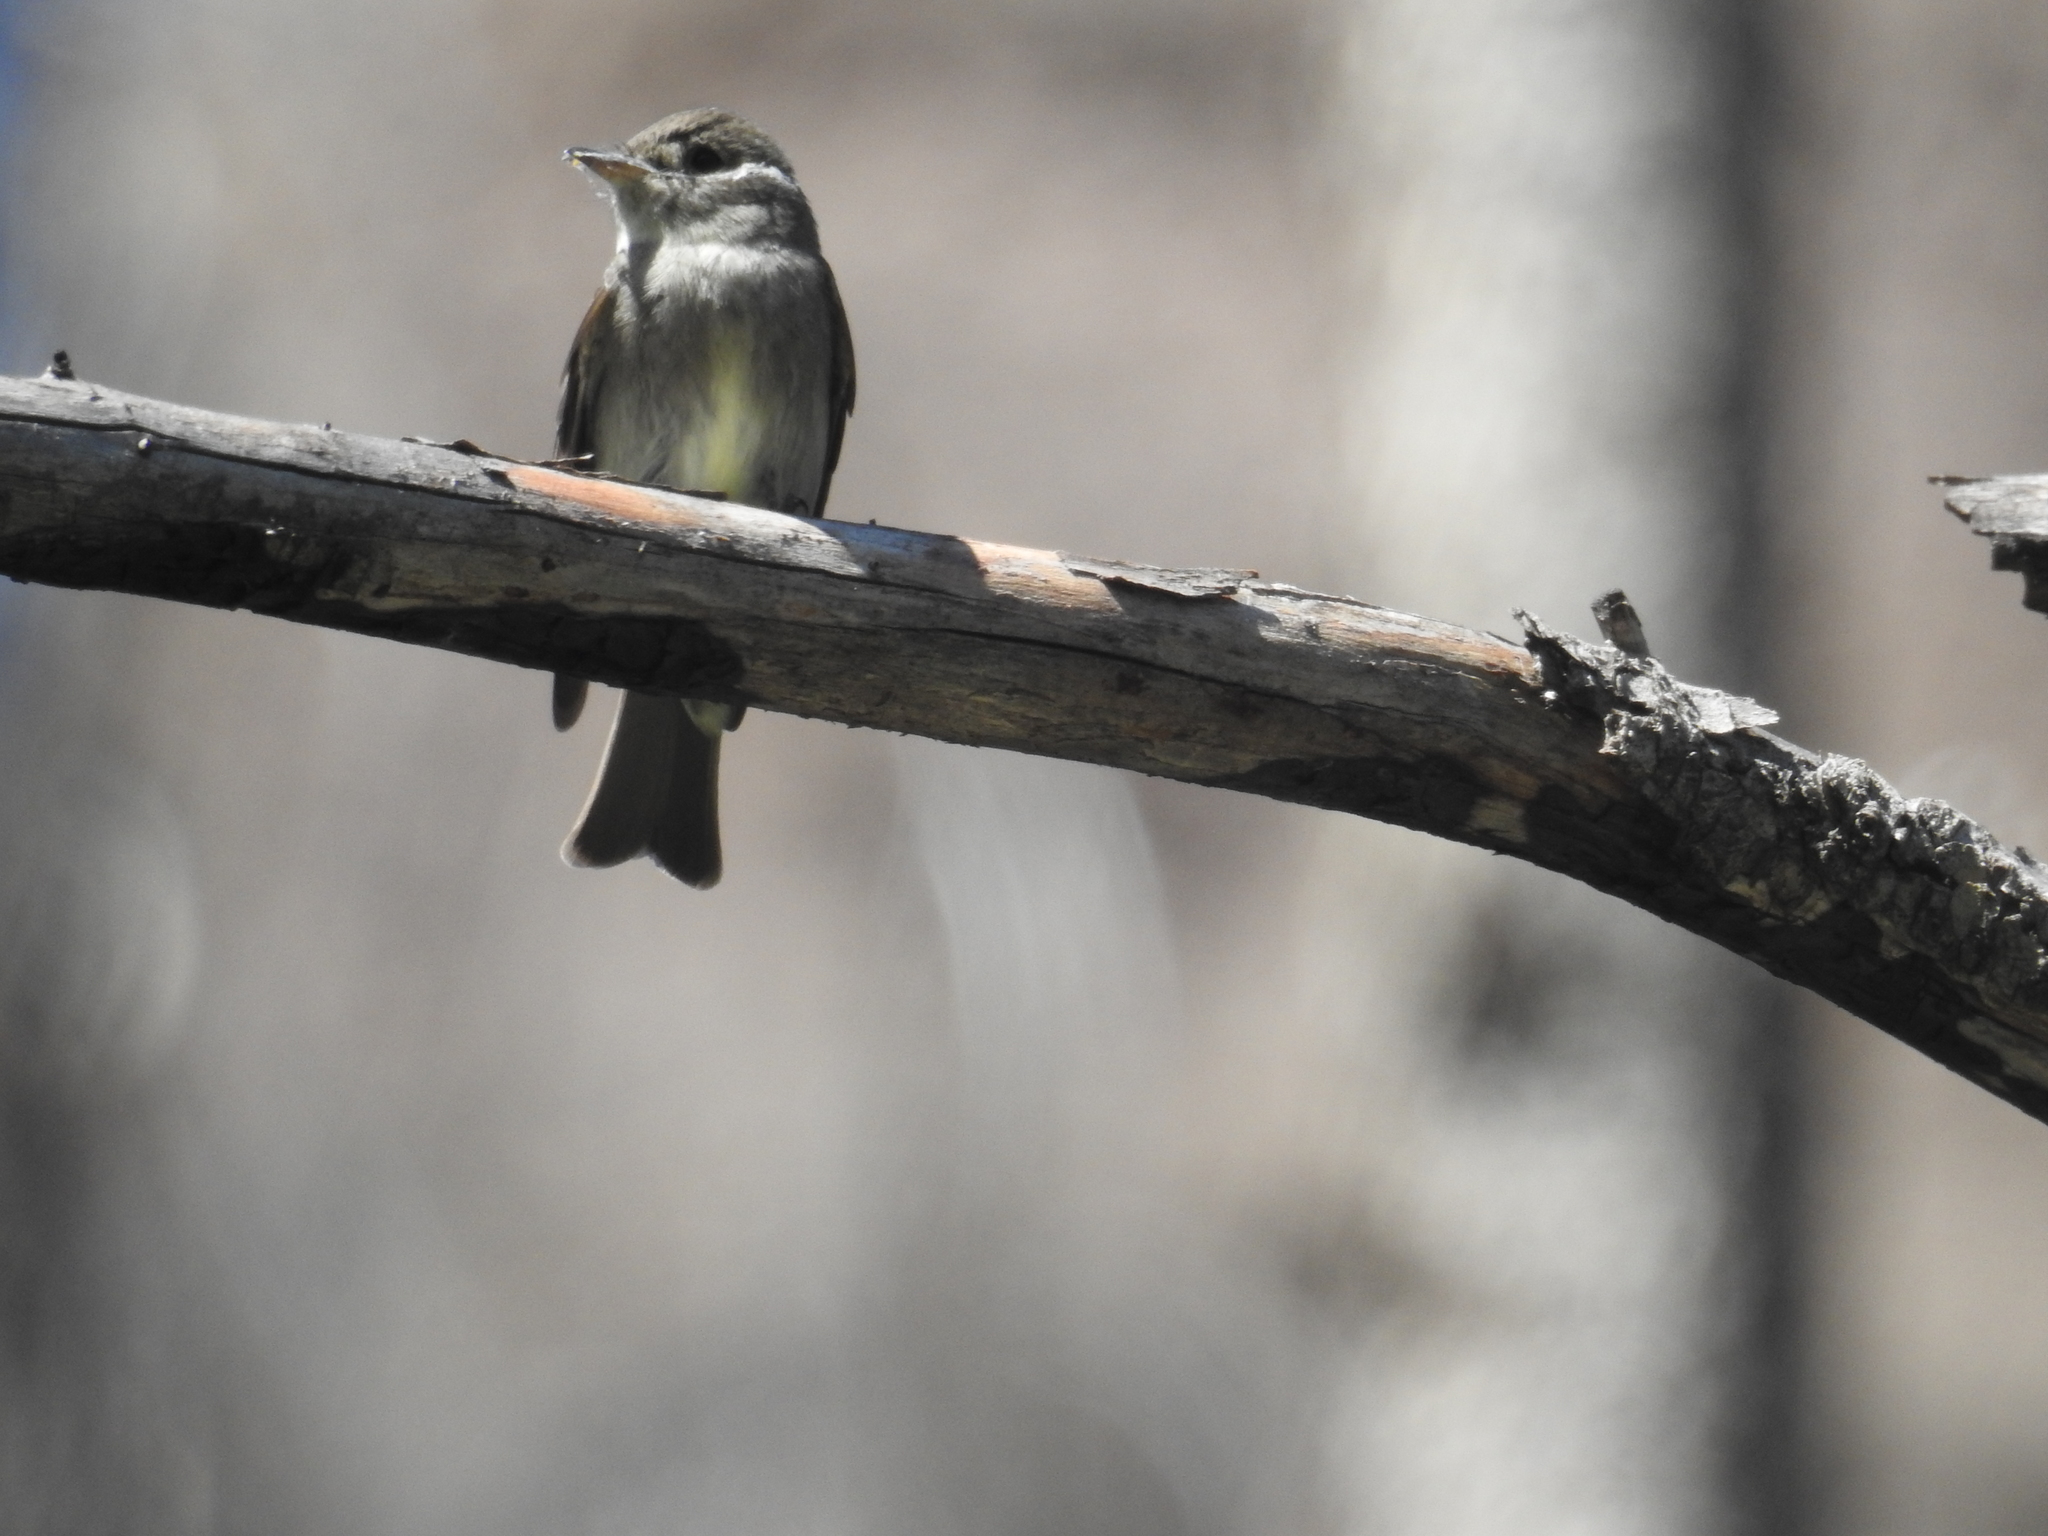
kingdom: Animalia
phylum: Chordata
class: Aves
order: Passeriformes
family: Tyrannidae
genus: Contopus
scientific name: Contopus sordidulus
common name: Western wood-pewee
